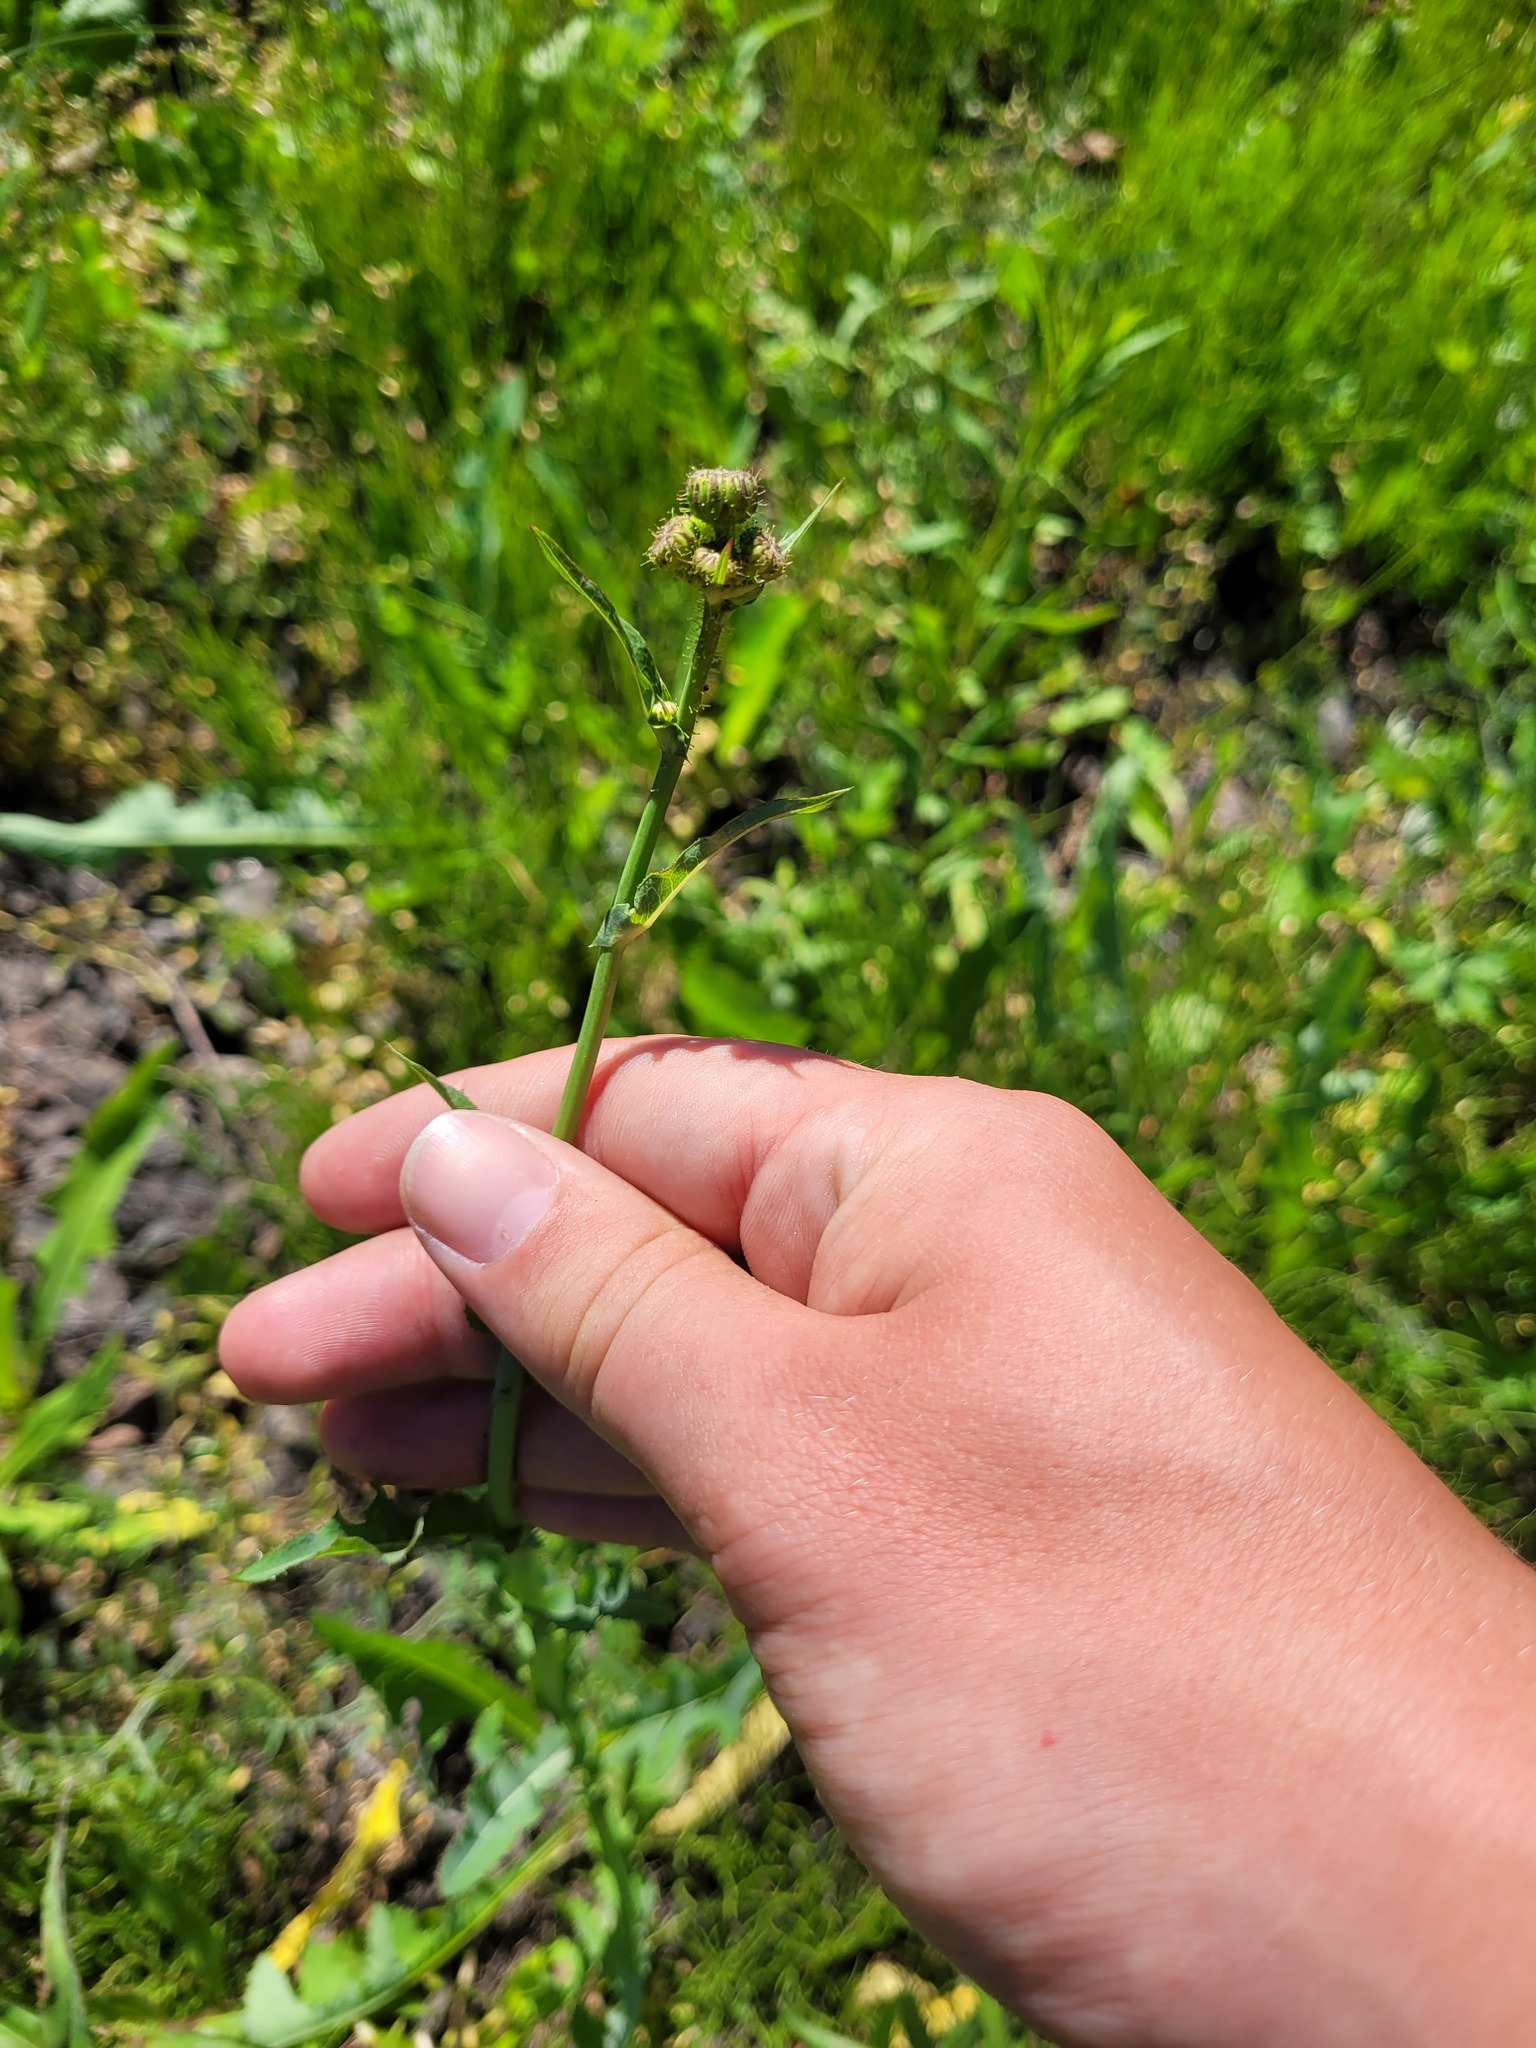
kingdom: Plantae
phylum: Tracheophyta
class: Magnoliopsida
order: Asterales
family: Asteraceae
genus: Sonchus
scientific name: Sonchus arvensis
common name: Perennial sow-thistle
